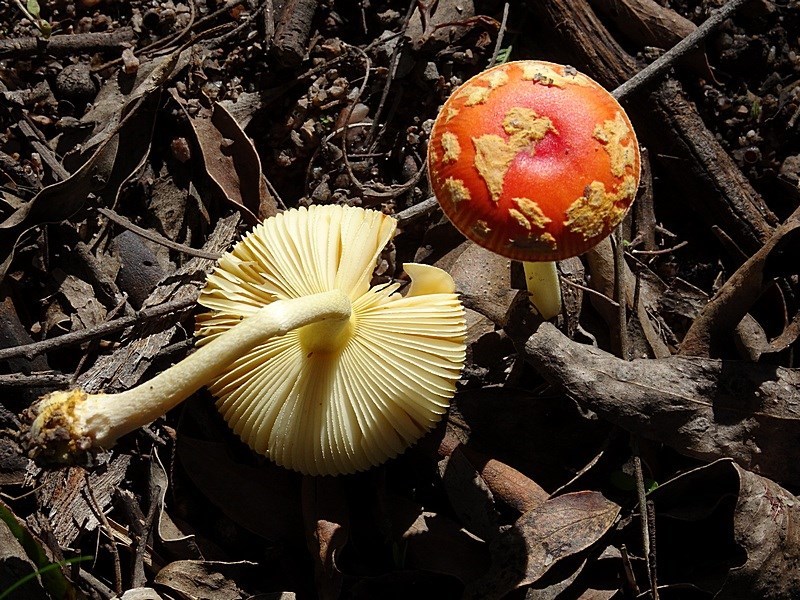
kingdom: Fungi
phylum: Basidiomycota
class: Agaricomycetes
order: Agaricales
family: Amanitaceae
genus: Amanita
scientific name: Amanita xanthocephala
